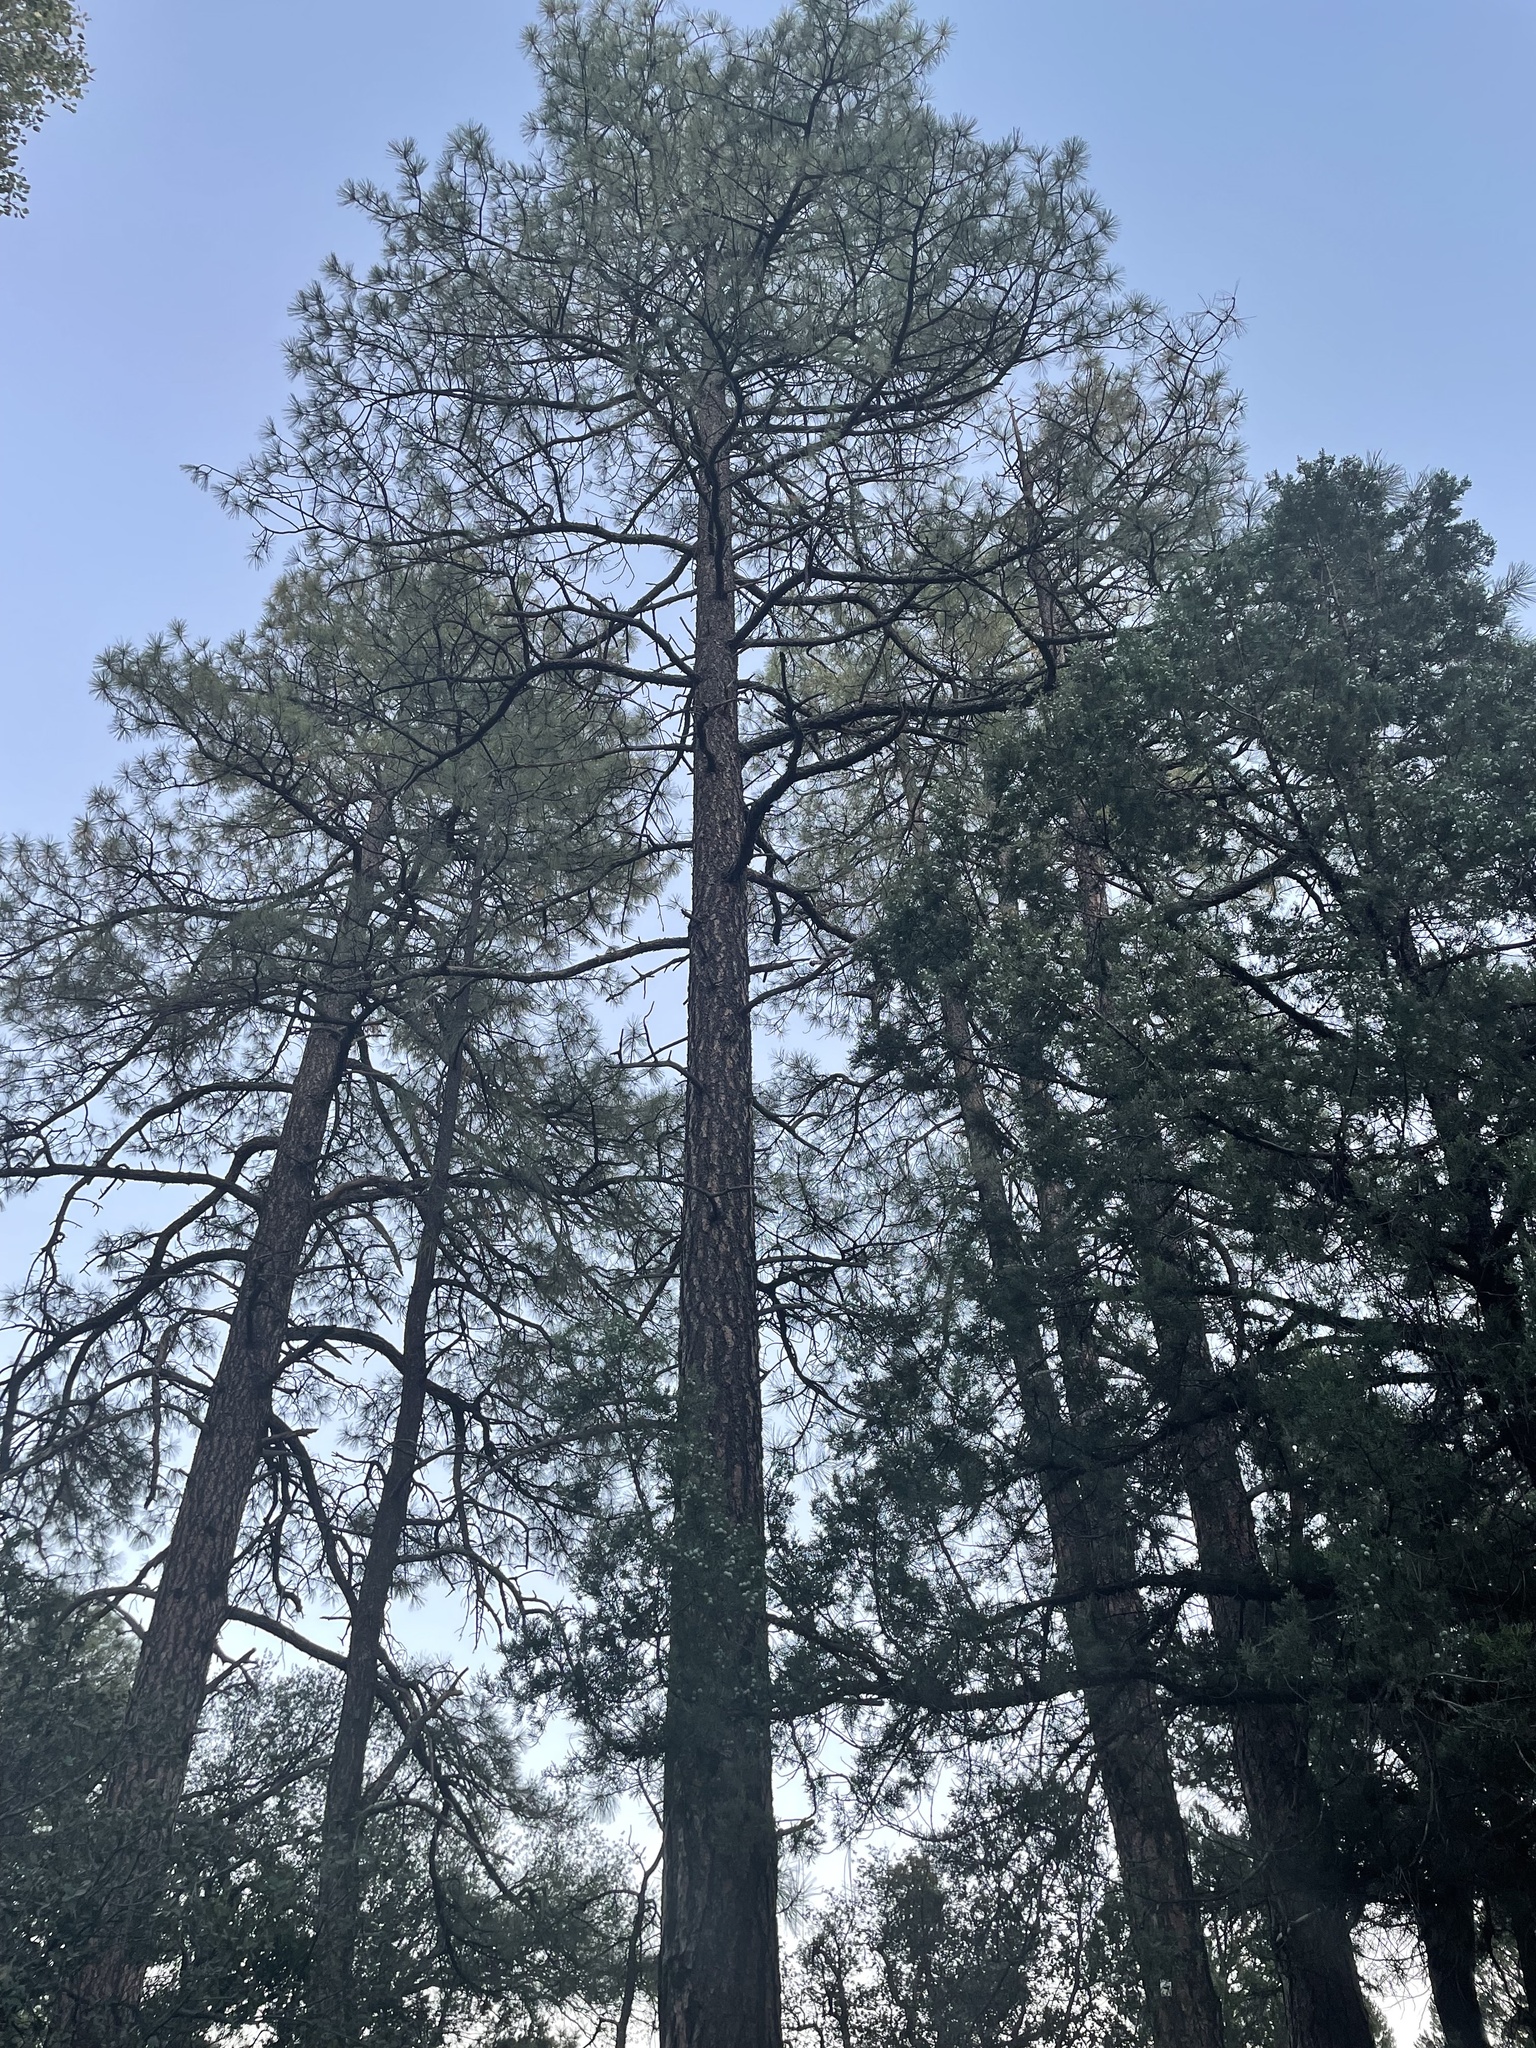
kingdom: Plantae
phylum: Tracheophyta
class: Pinopsida
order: Pinales
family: Pinaceae
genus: Pinus
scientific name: Pinus ponderosa
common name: Western yellow-pine
